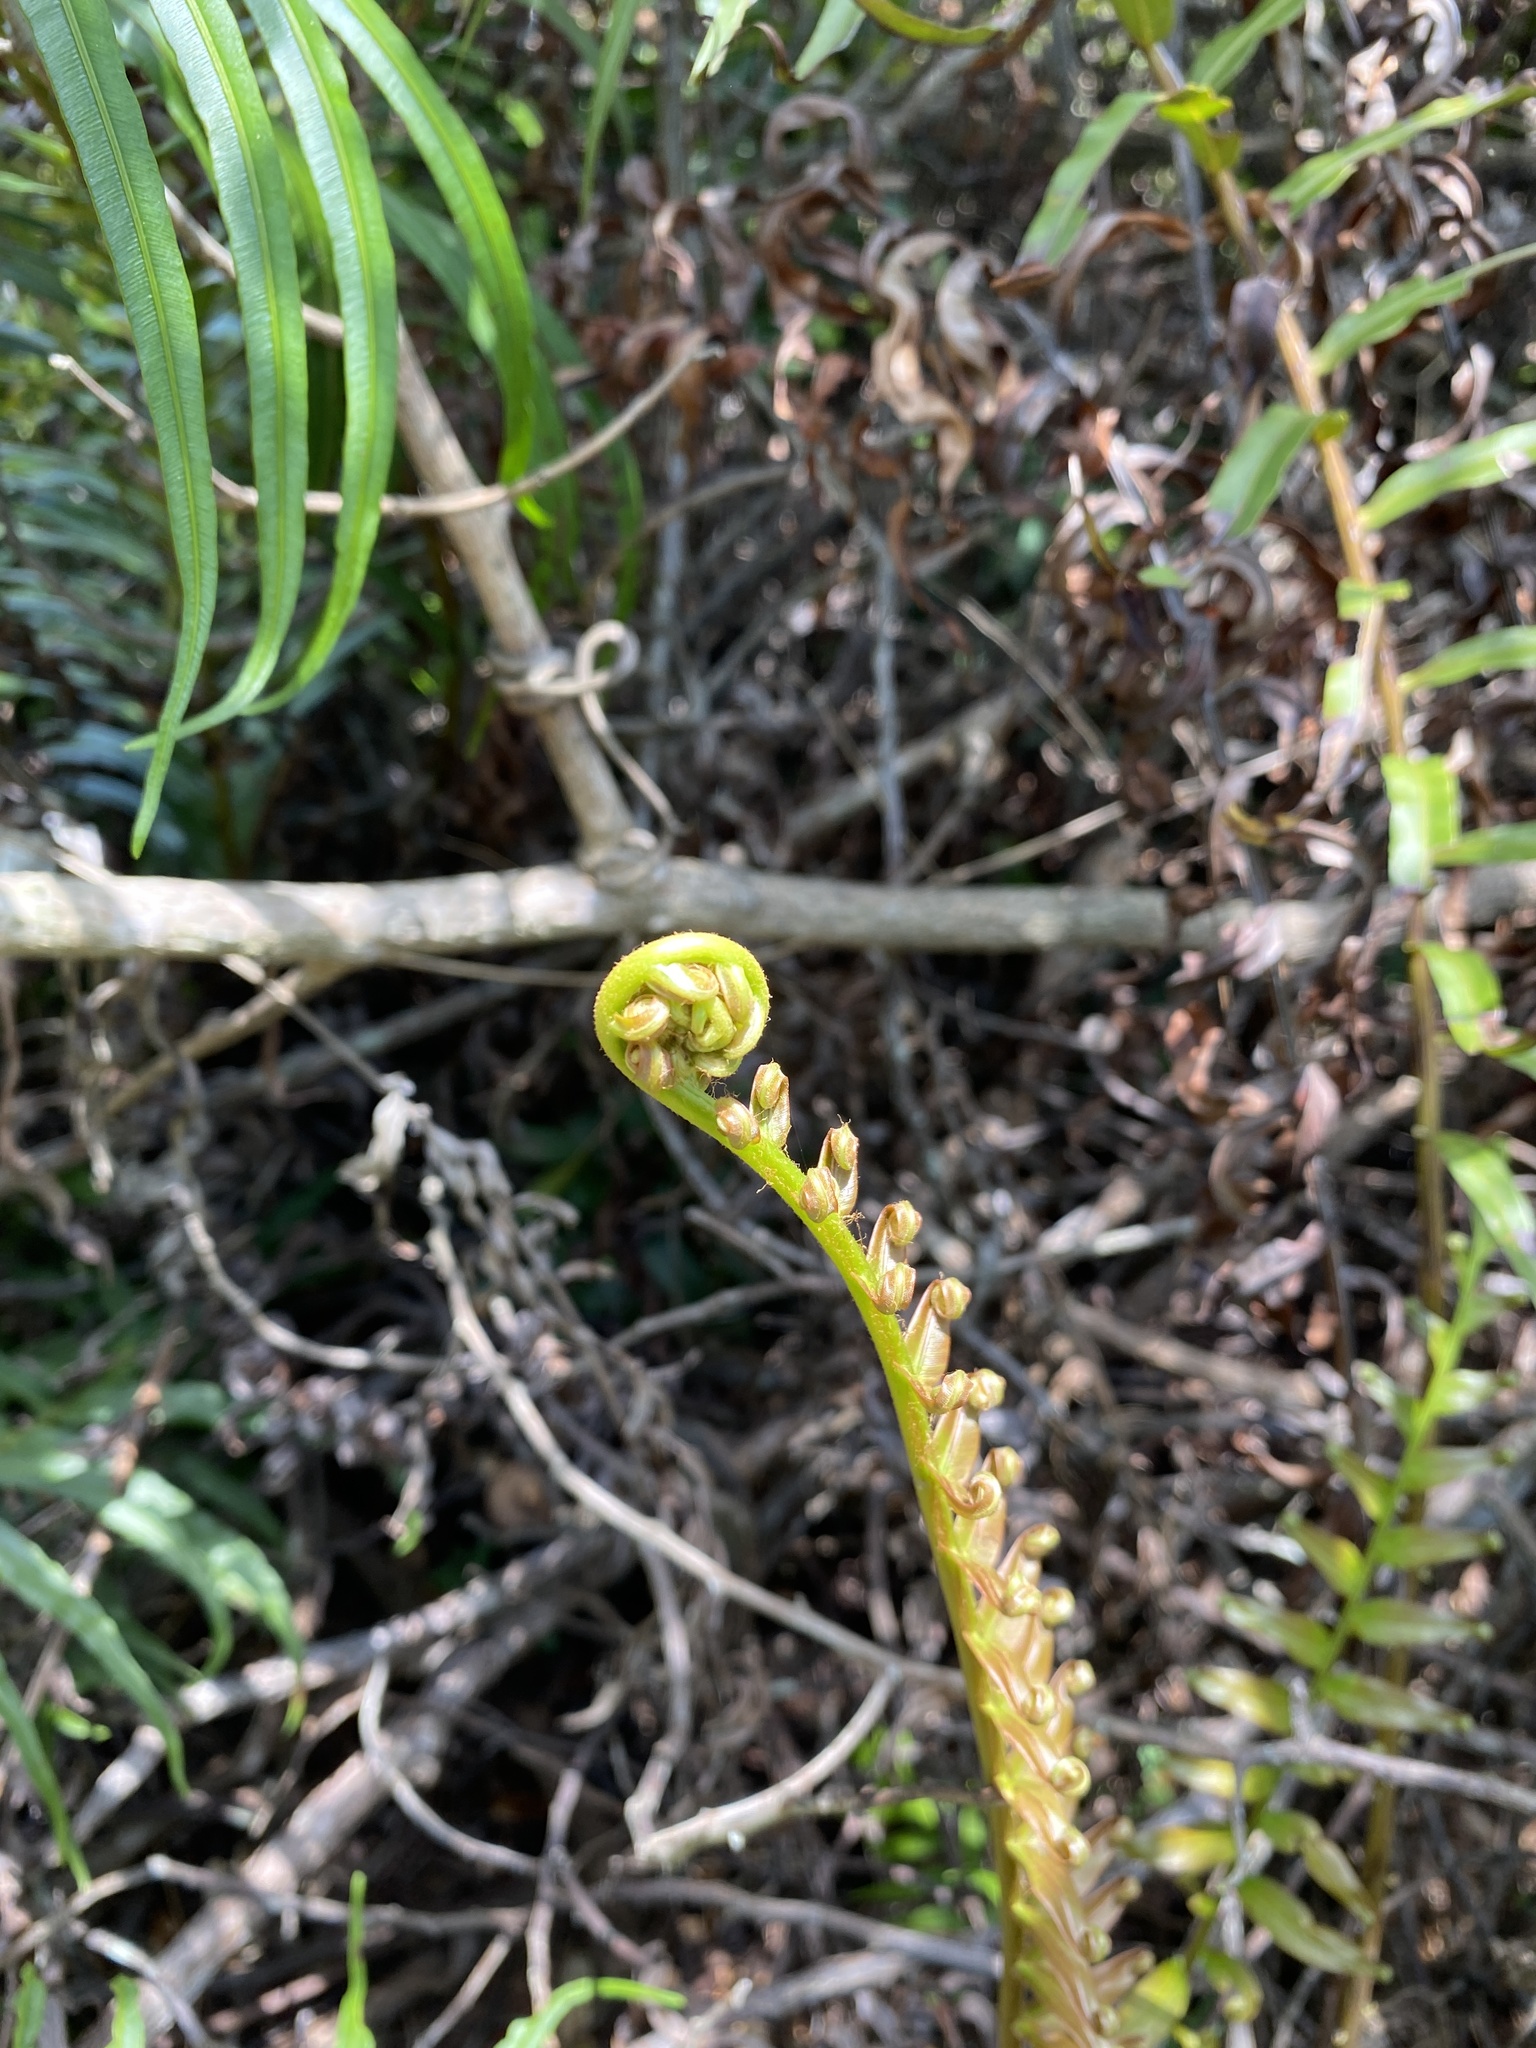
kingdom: Plantae
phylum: Tracheophyta
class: Polypodiopsida
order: Polypodiales
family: Blechnaceae
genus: Blechnopsis
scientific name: Blechnopsis orientalis
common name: Oriental blechnum
